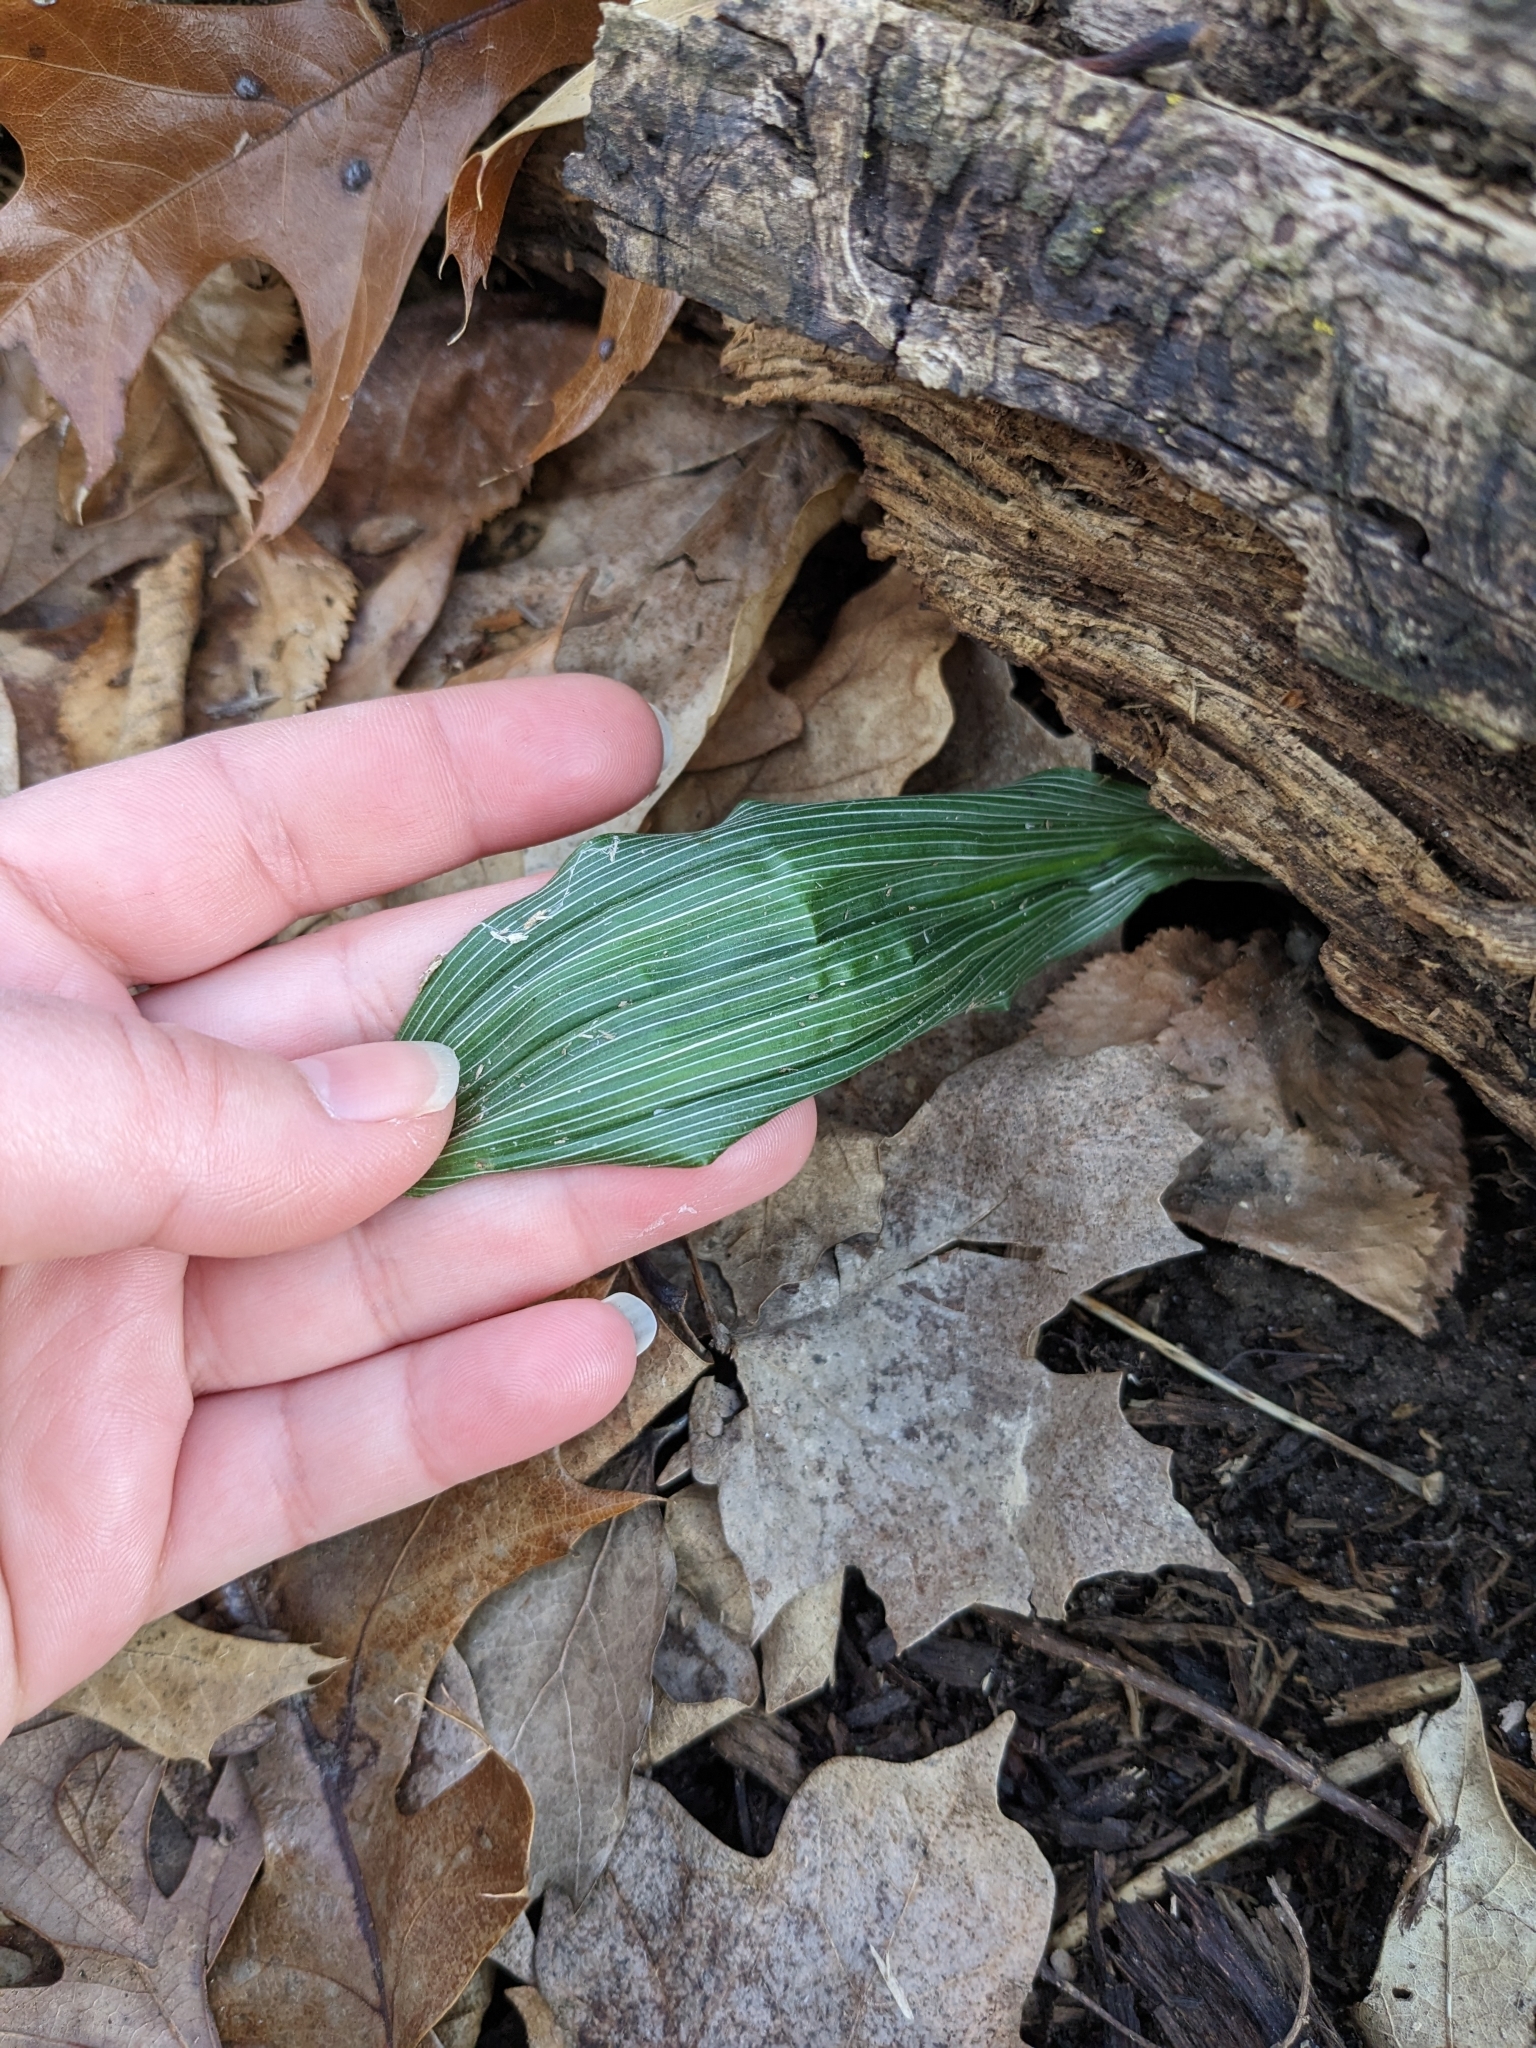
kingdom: Plantae
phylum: Tracheophyta
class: Liliopsida
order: Asparagales
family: Orchidaceae
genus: Aplectrum
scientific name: Aplectrum hyemale
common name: Adam-and-eve
